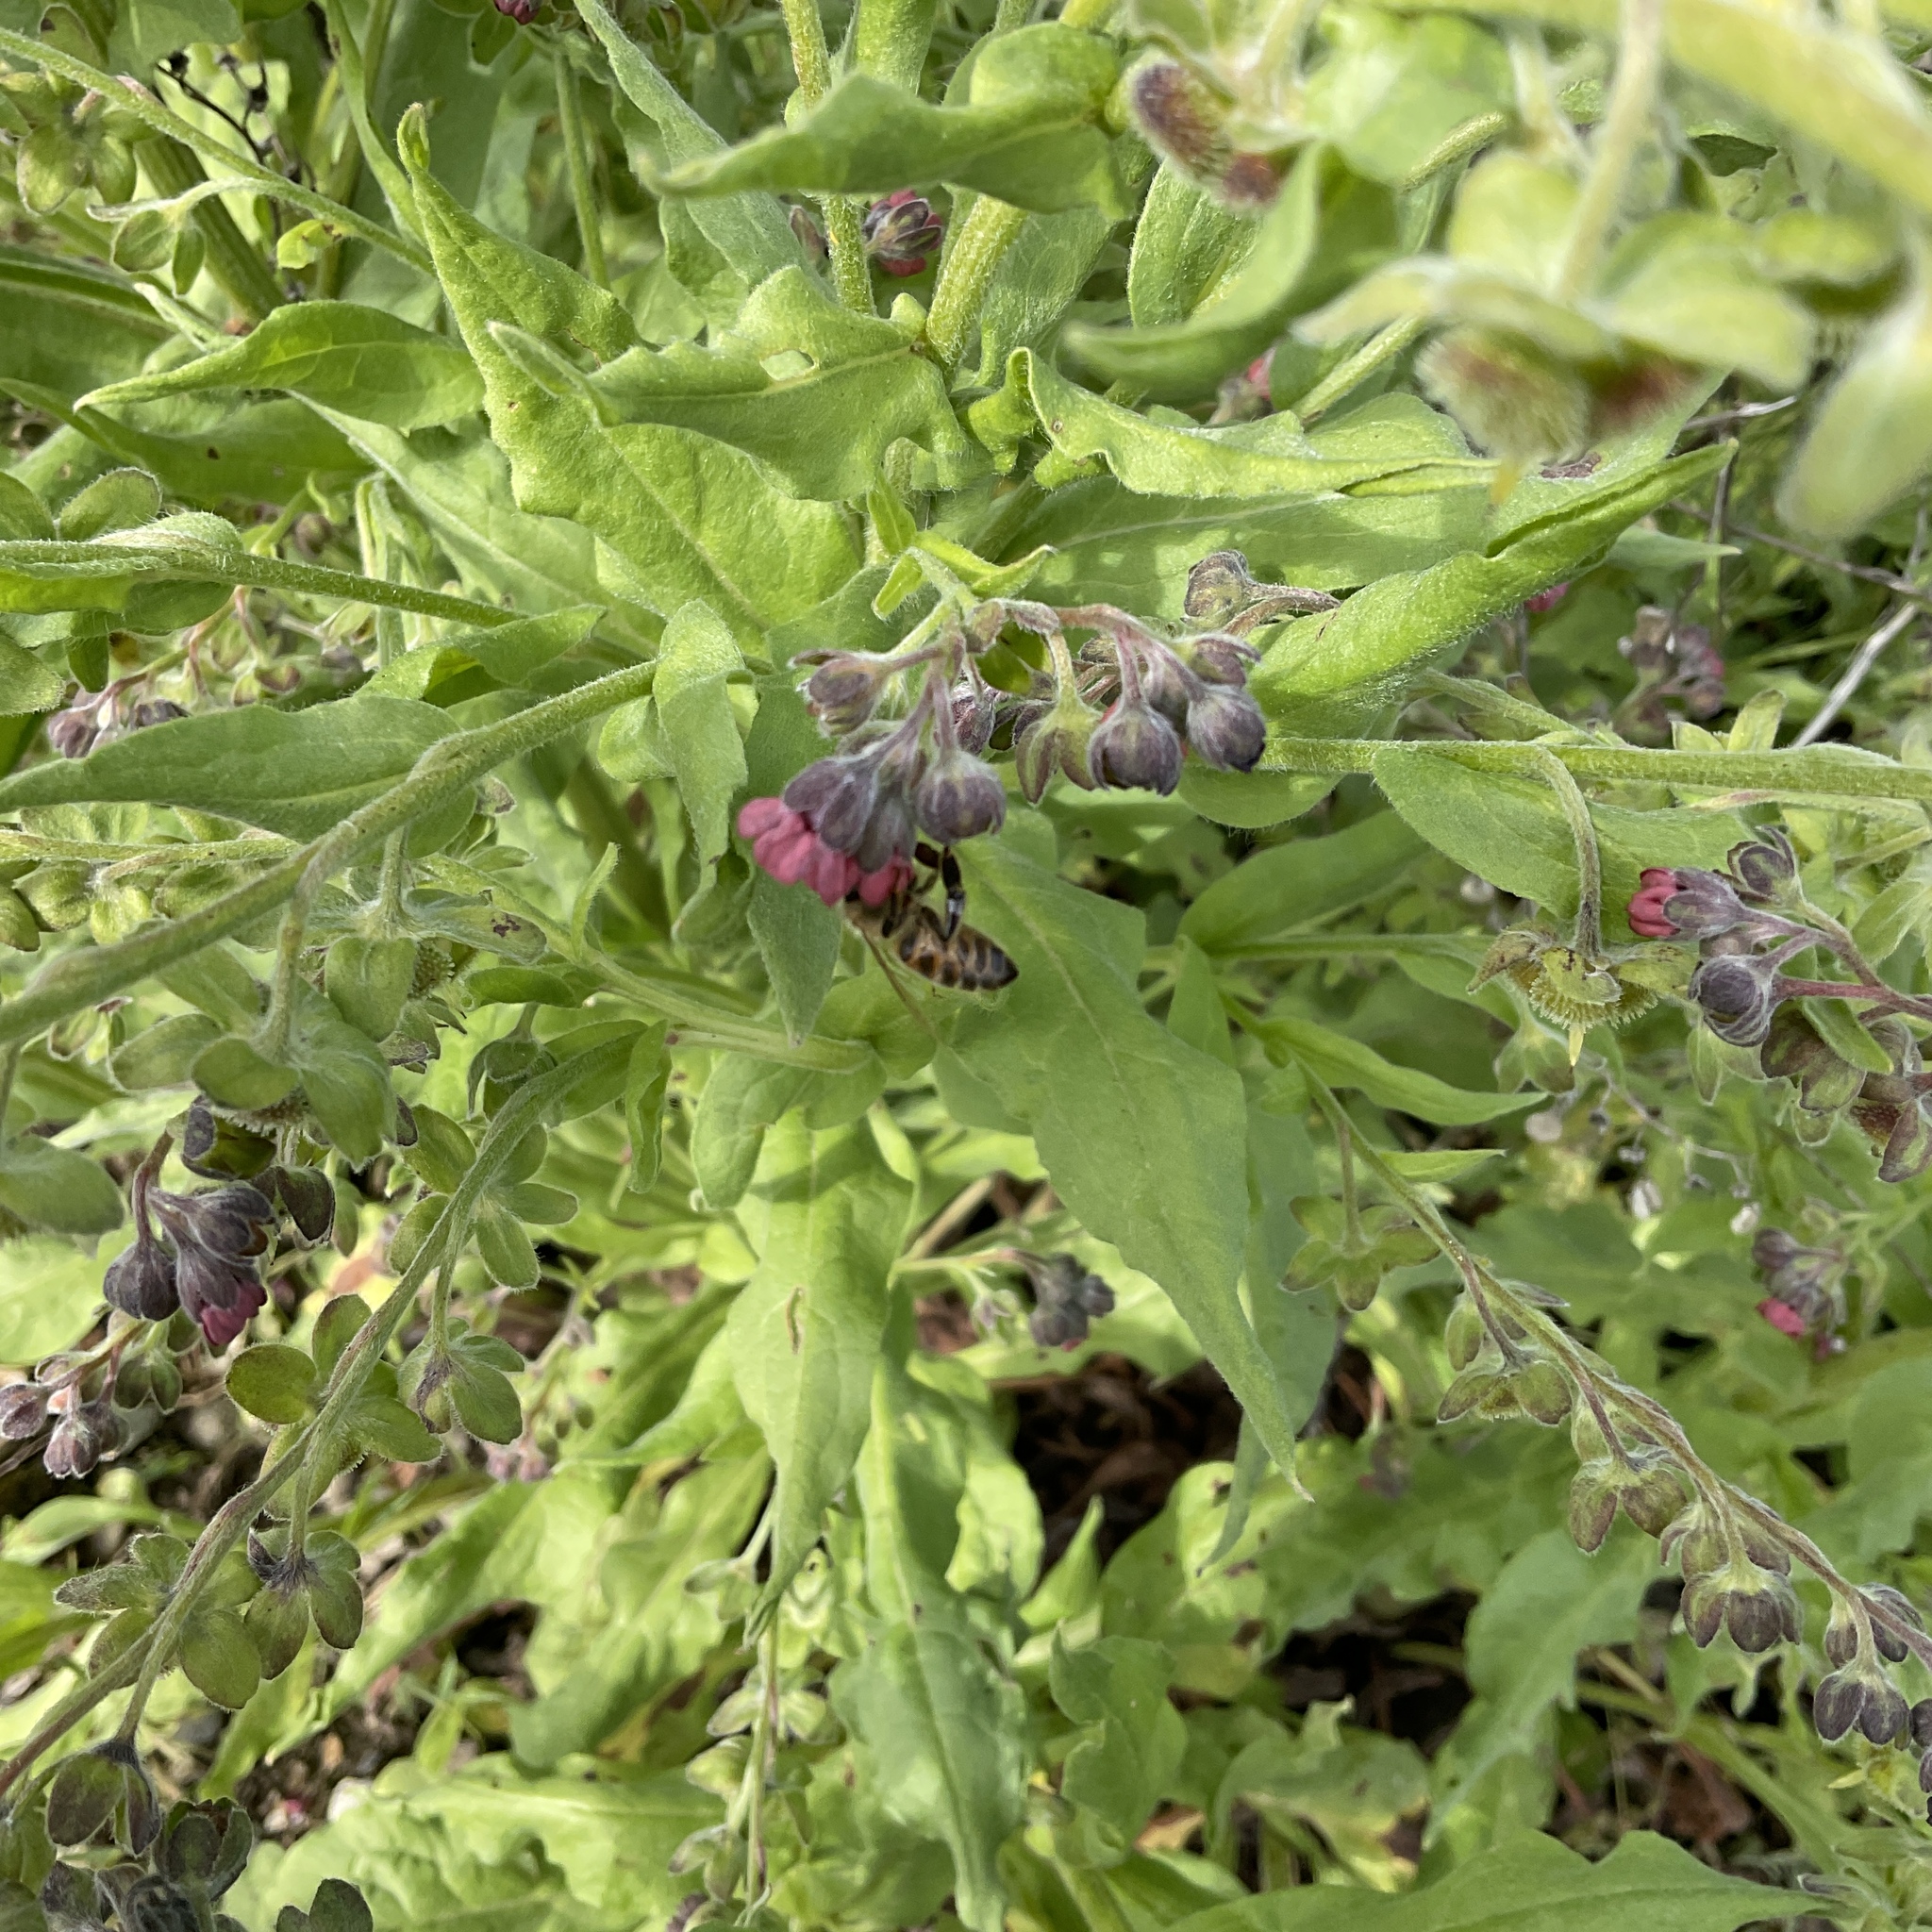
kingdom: Plantae
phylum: Tracheophyta
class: Magnoliopsida
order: Boraginales
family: Boraginaceae
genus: Cynoglossum
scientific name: Cynoglossum officinale
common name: Hound's-tongue
